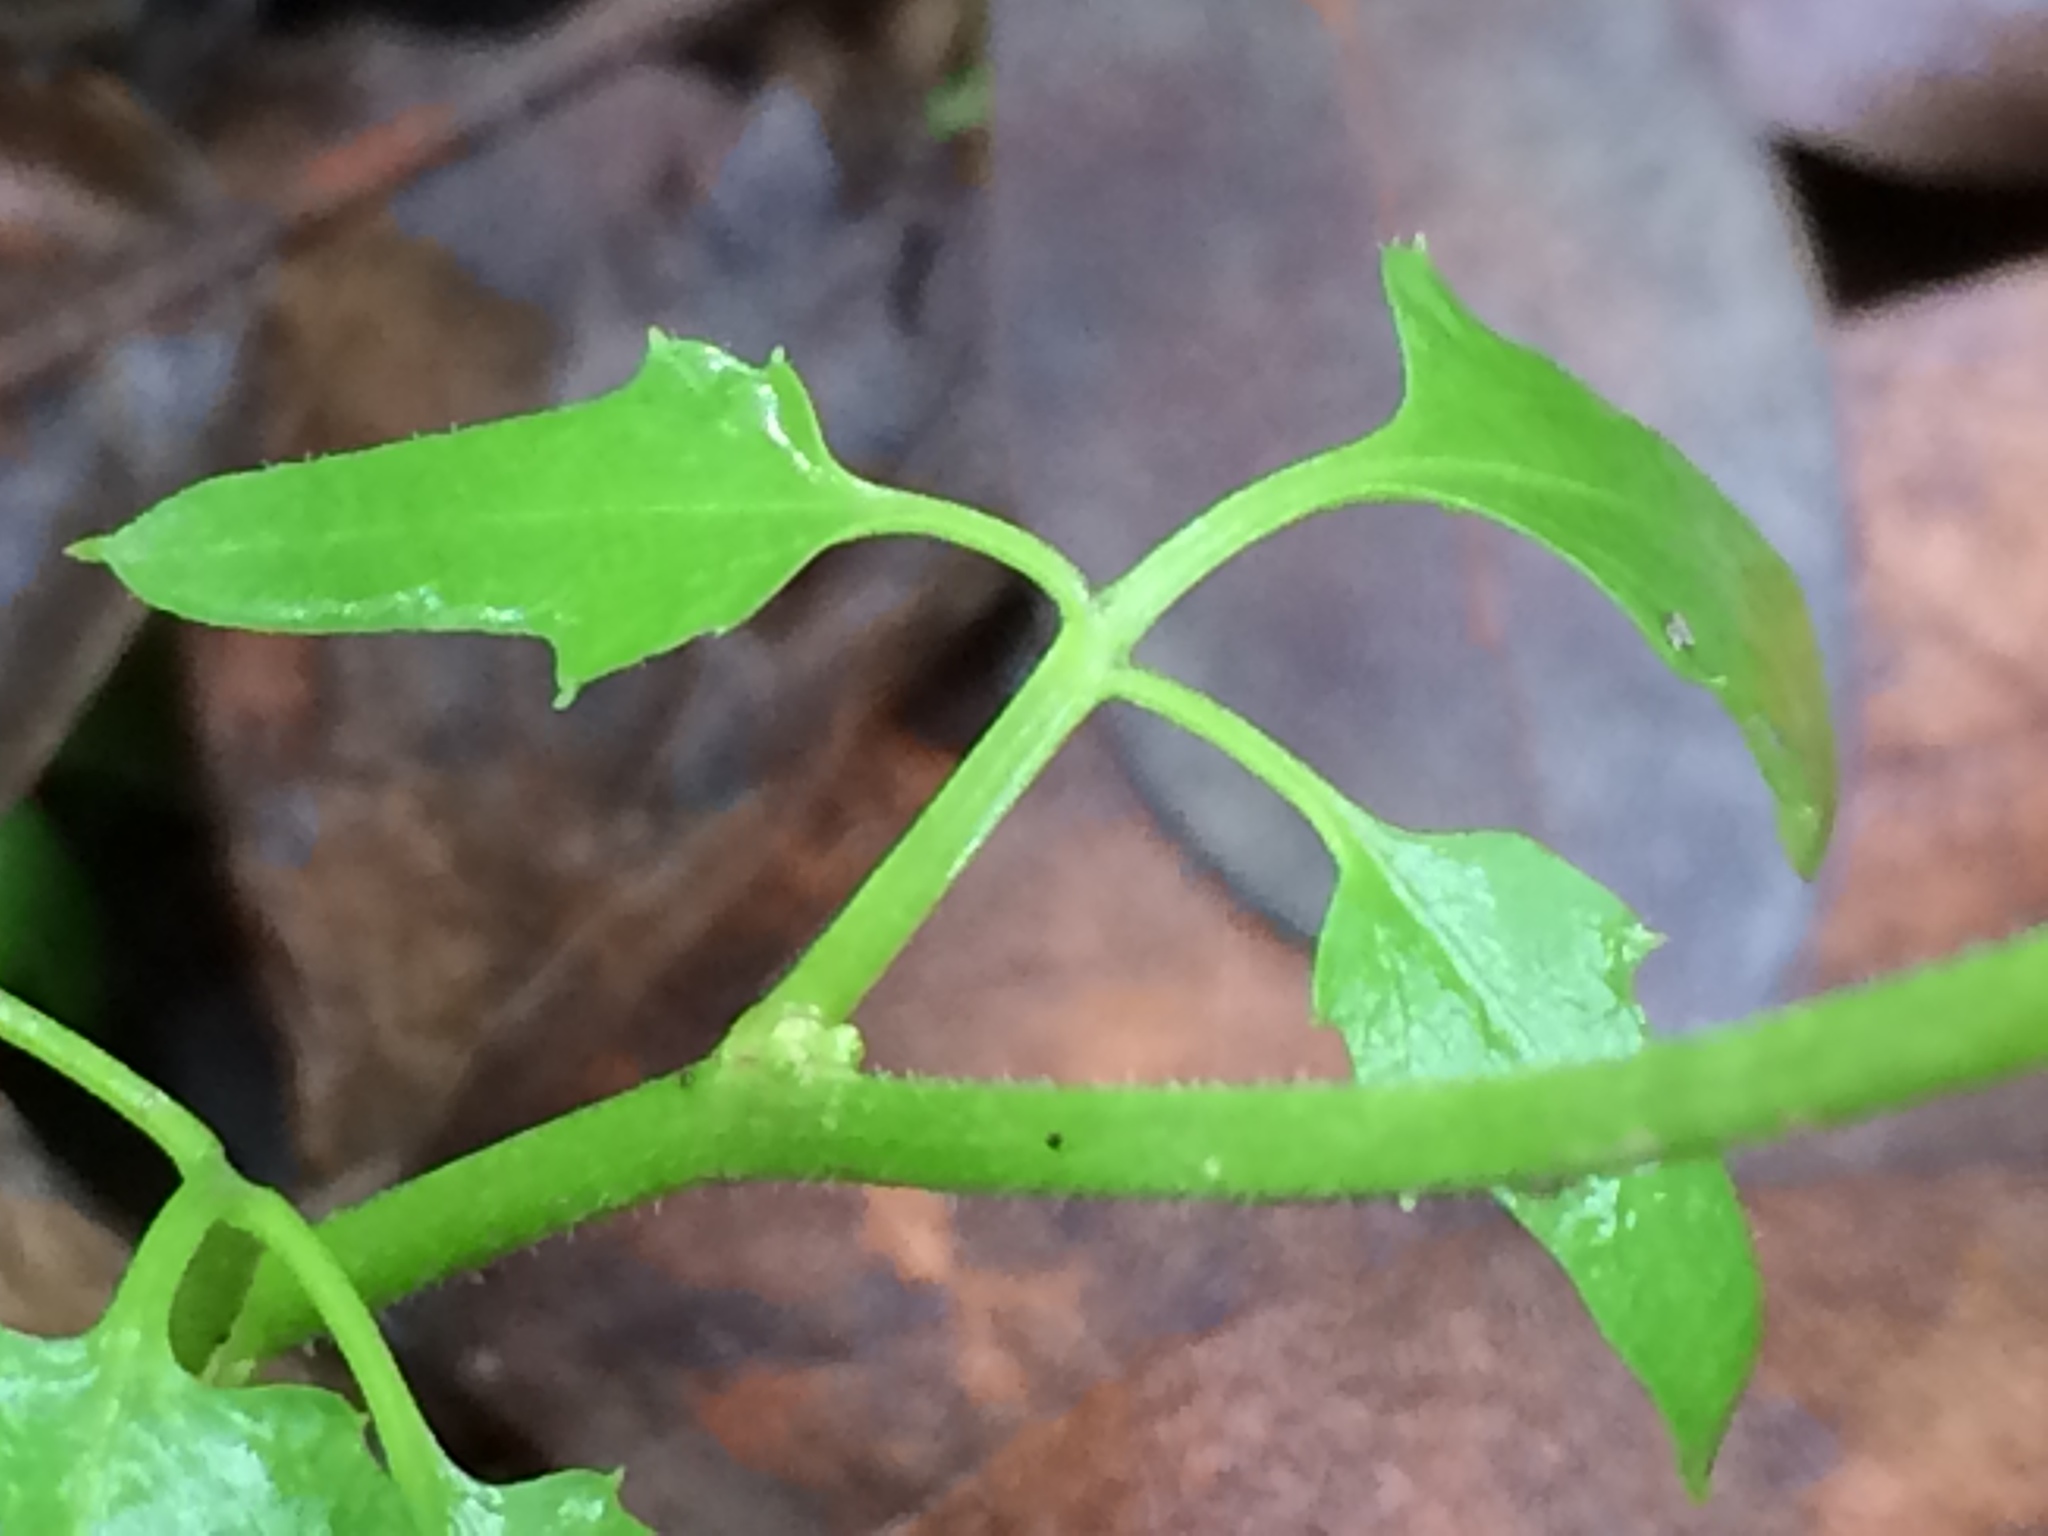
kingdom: Plantae
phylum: Tracheophyta
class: Magnoliopsida
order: Brassicales
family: Brassicaceae
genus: Cardamine
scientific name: Cardamine californica
